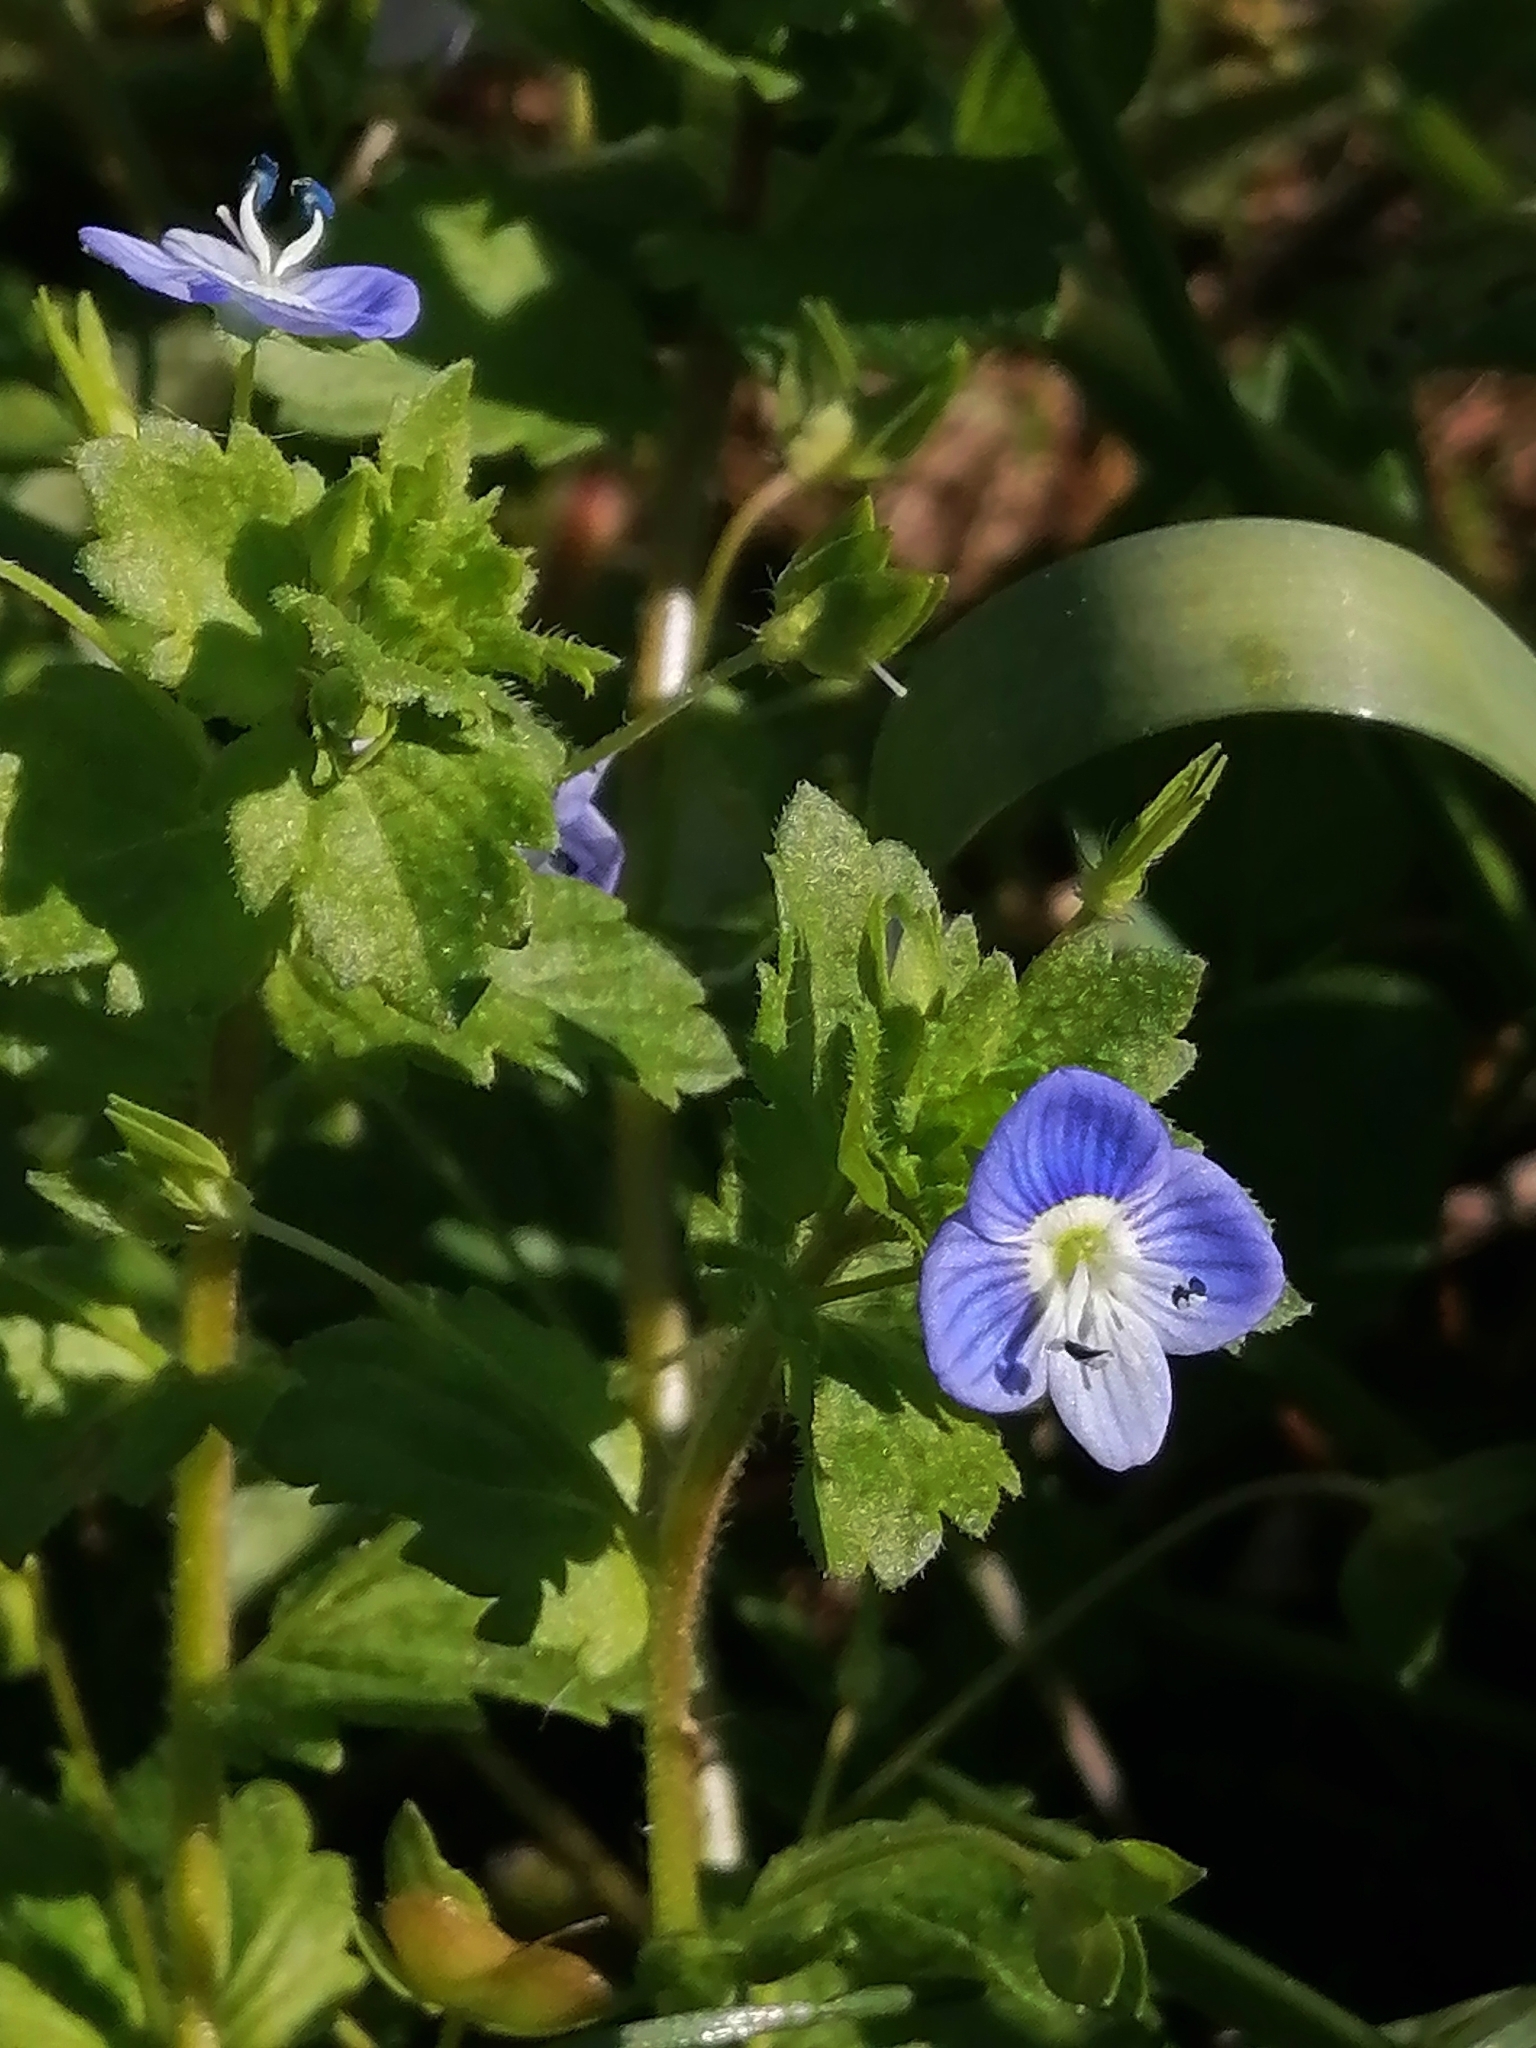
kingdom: Plantae
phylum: Tracheophyta
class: Magnoliopsida
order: Lamiales
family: Plantaginaceae
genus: Veronica
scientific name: Veronica persica
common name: Common field-speedwell
